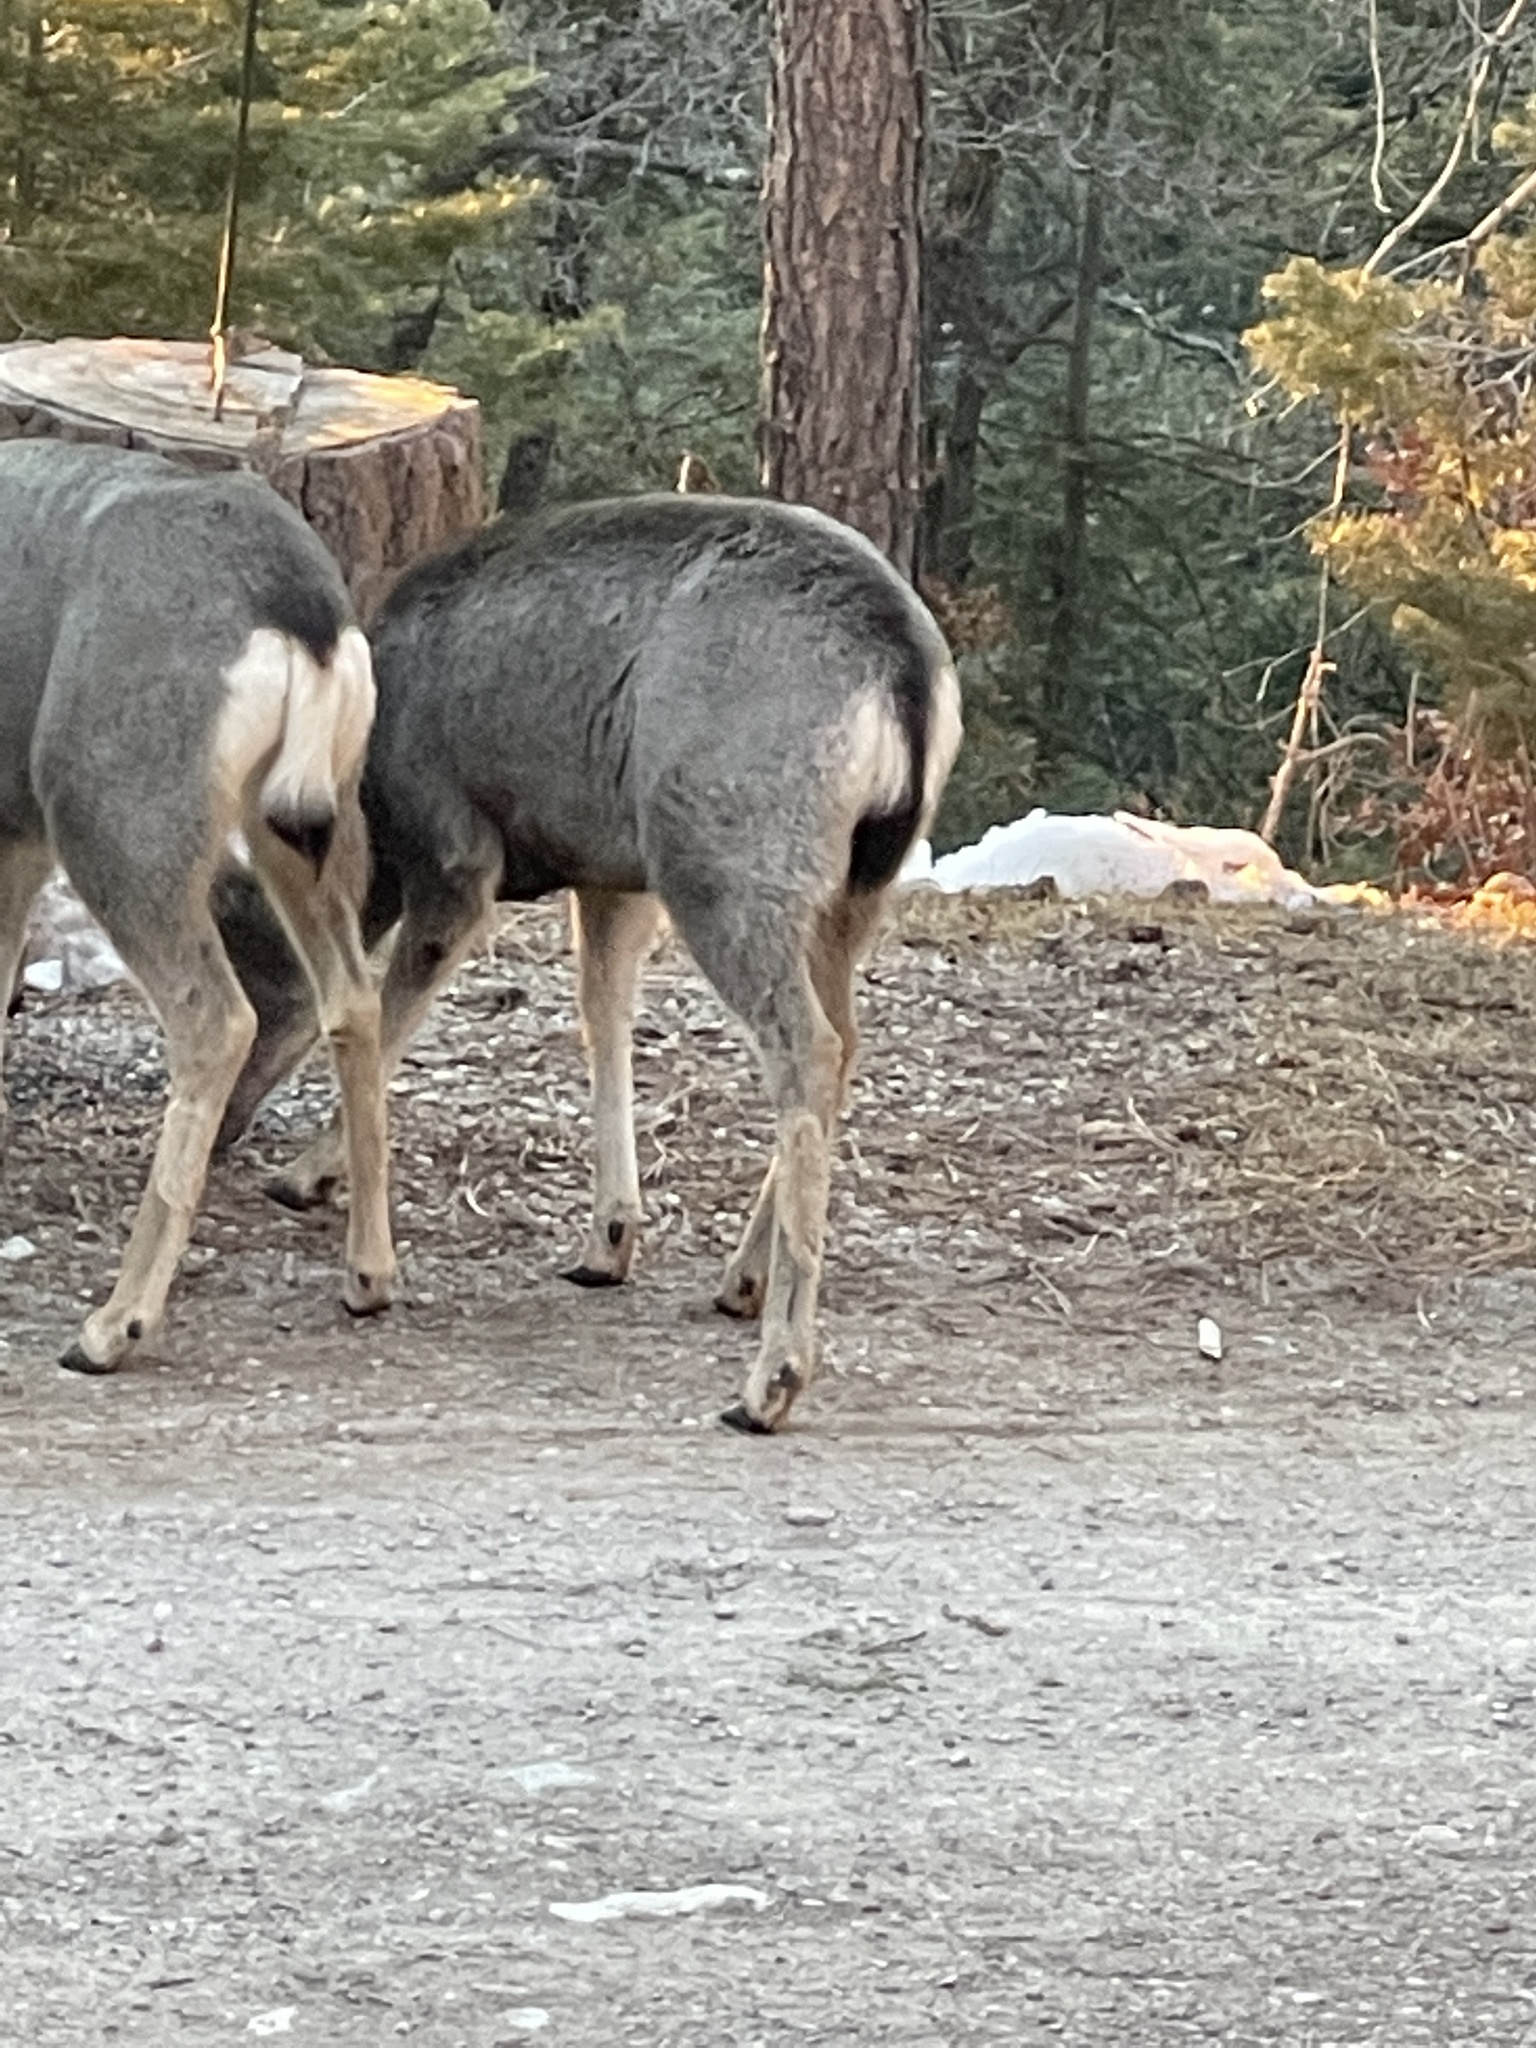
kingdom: Animalia
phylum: Chordata
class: Mammalia
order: Artiodactyla
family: Cervidae
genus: Odocoileus
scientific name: Odocoileus
